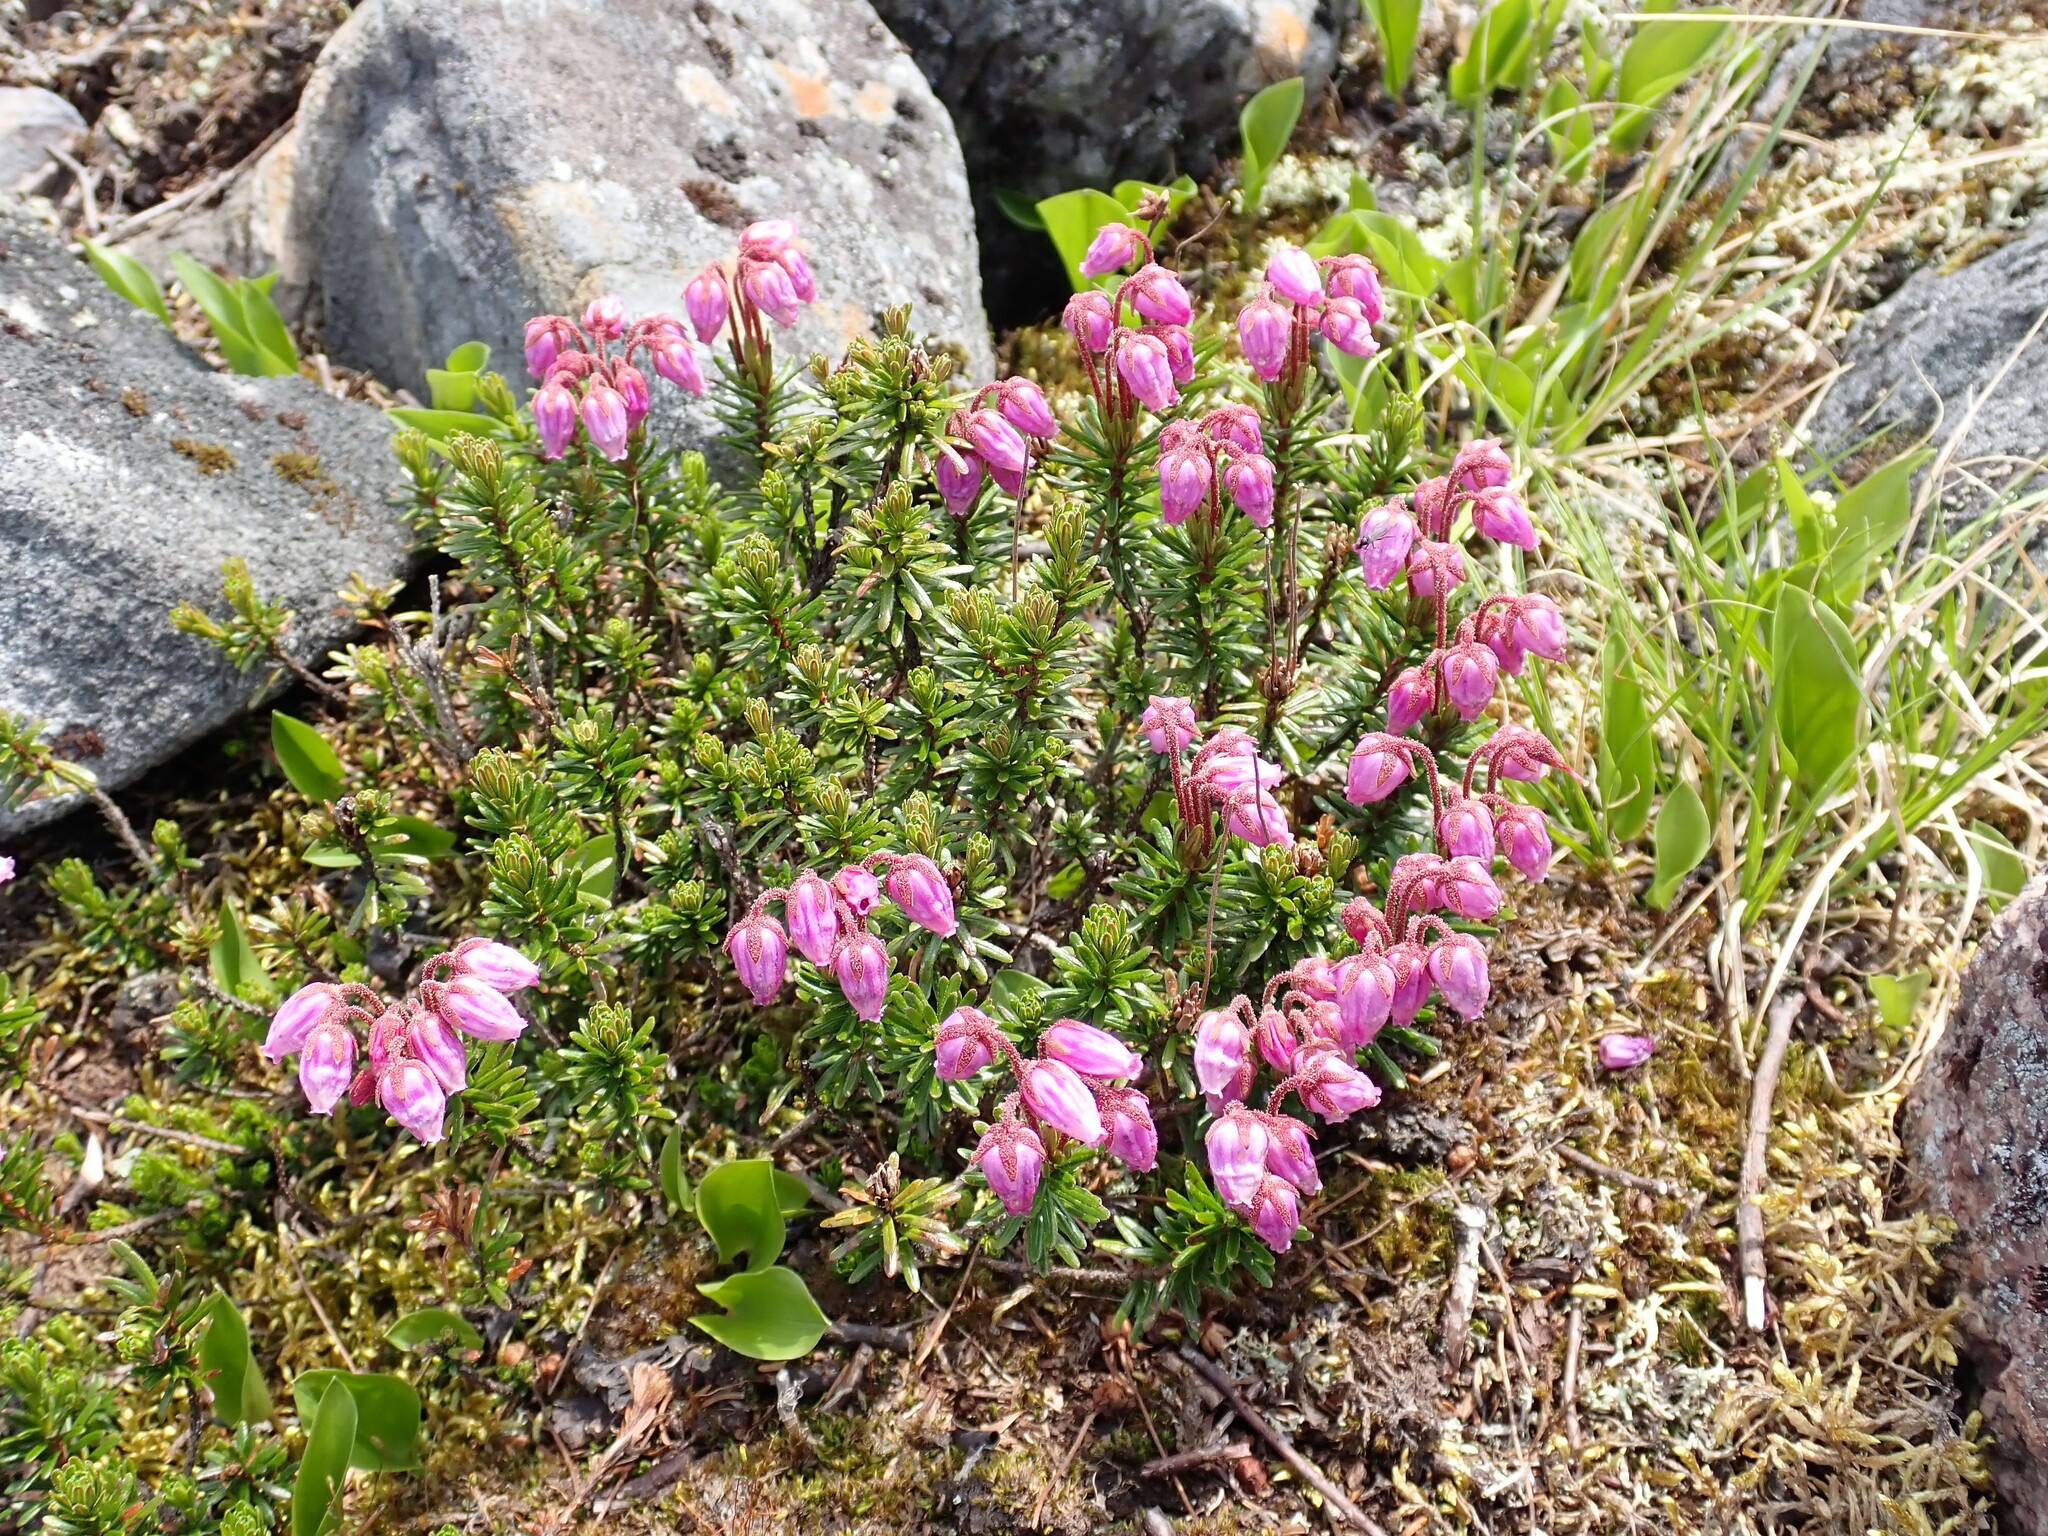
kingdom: Plantae
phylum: Tracheophyta
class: Magnoliopsida
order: Ericales
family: Ericaceae
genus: Phyllodoce
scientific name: Phyllodoce caerulea
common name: Blue heath
